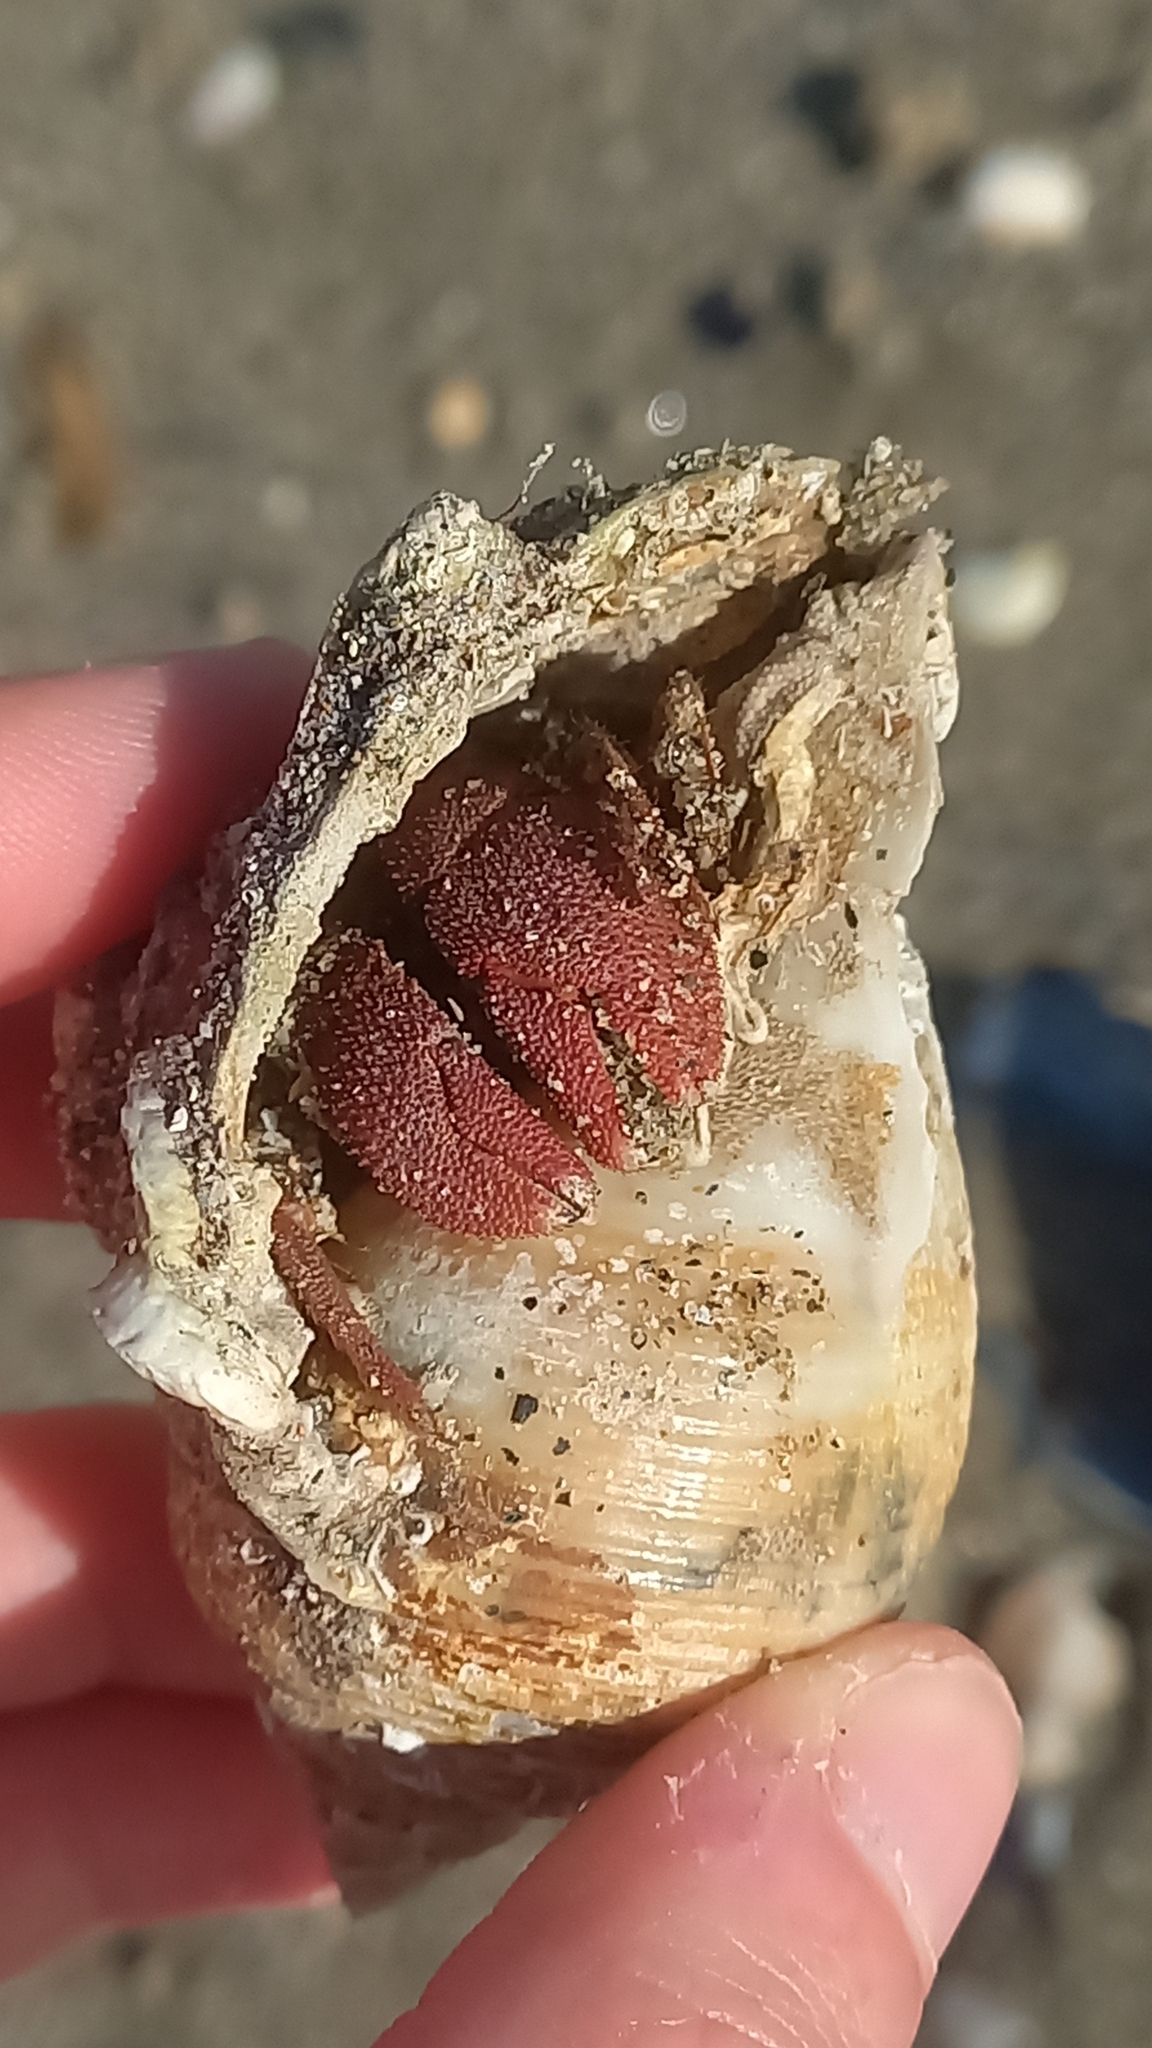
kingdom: Animalia
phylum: Arthropoda
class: Malacostraca
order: Decapoda
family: Diogenidae
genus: Paguristes
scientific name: Paguristes eremita
